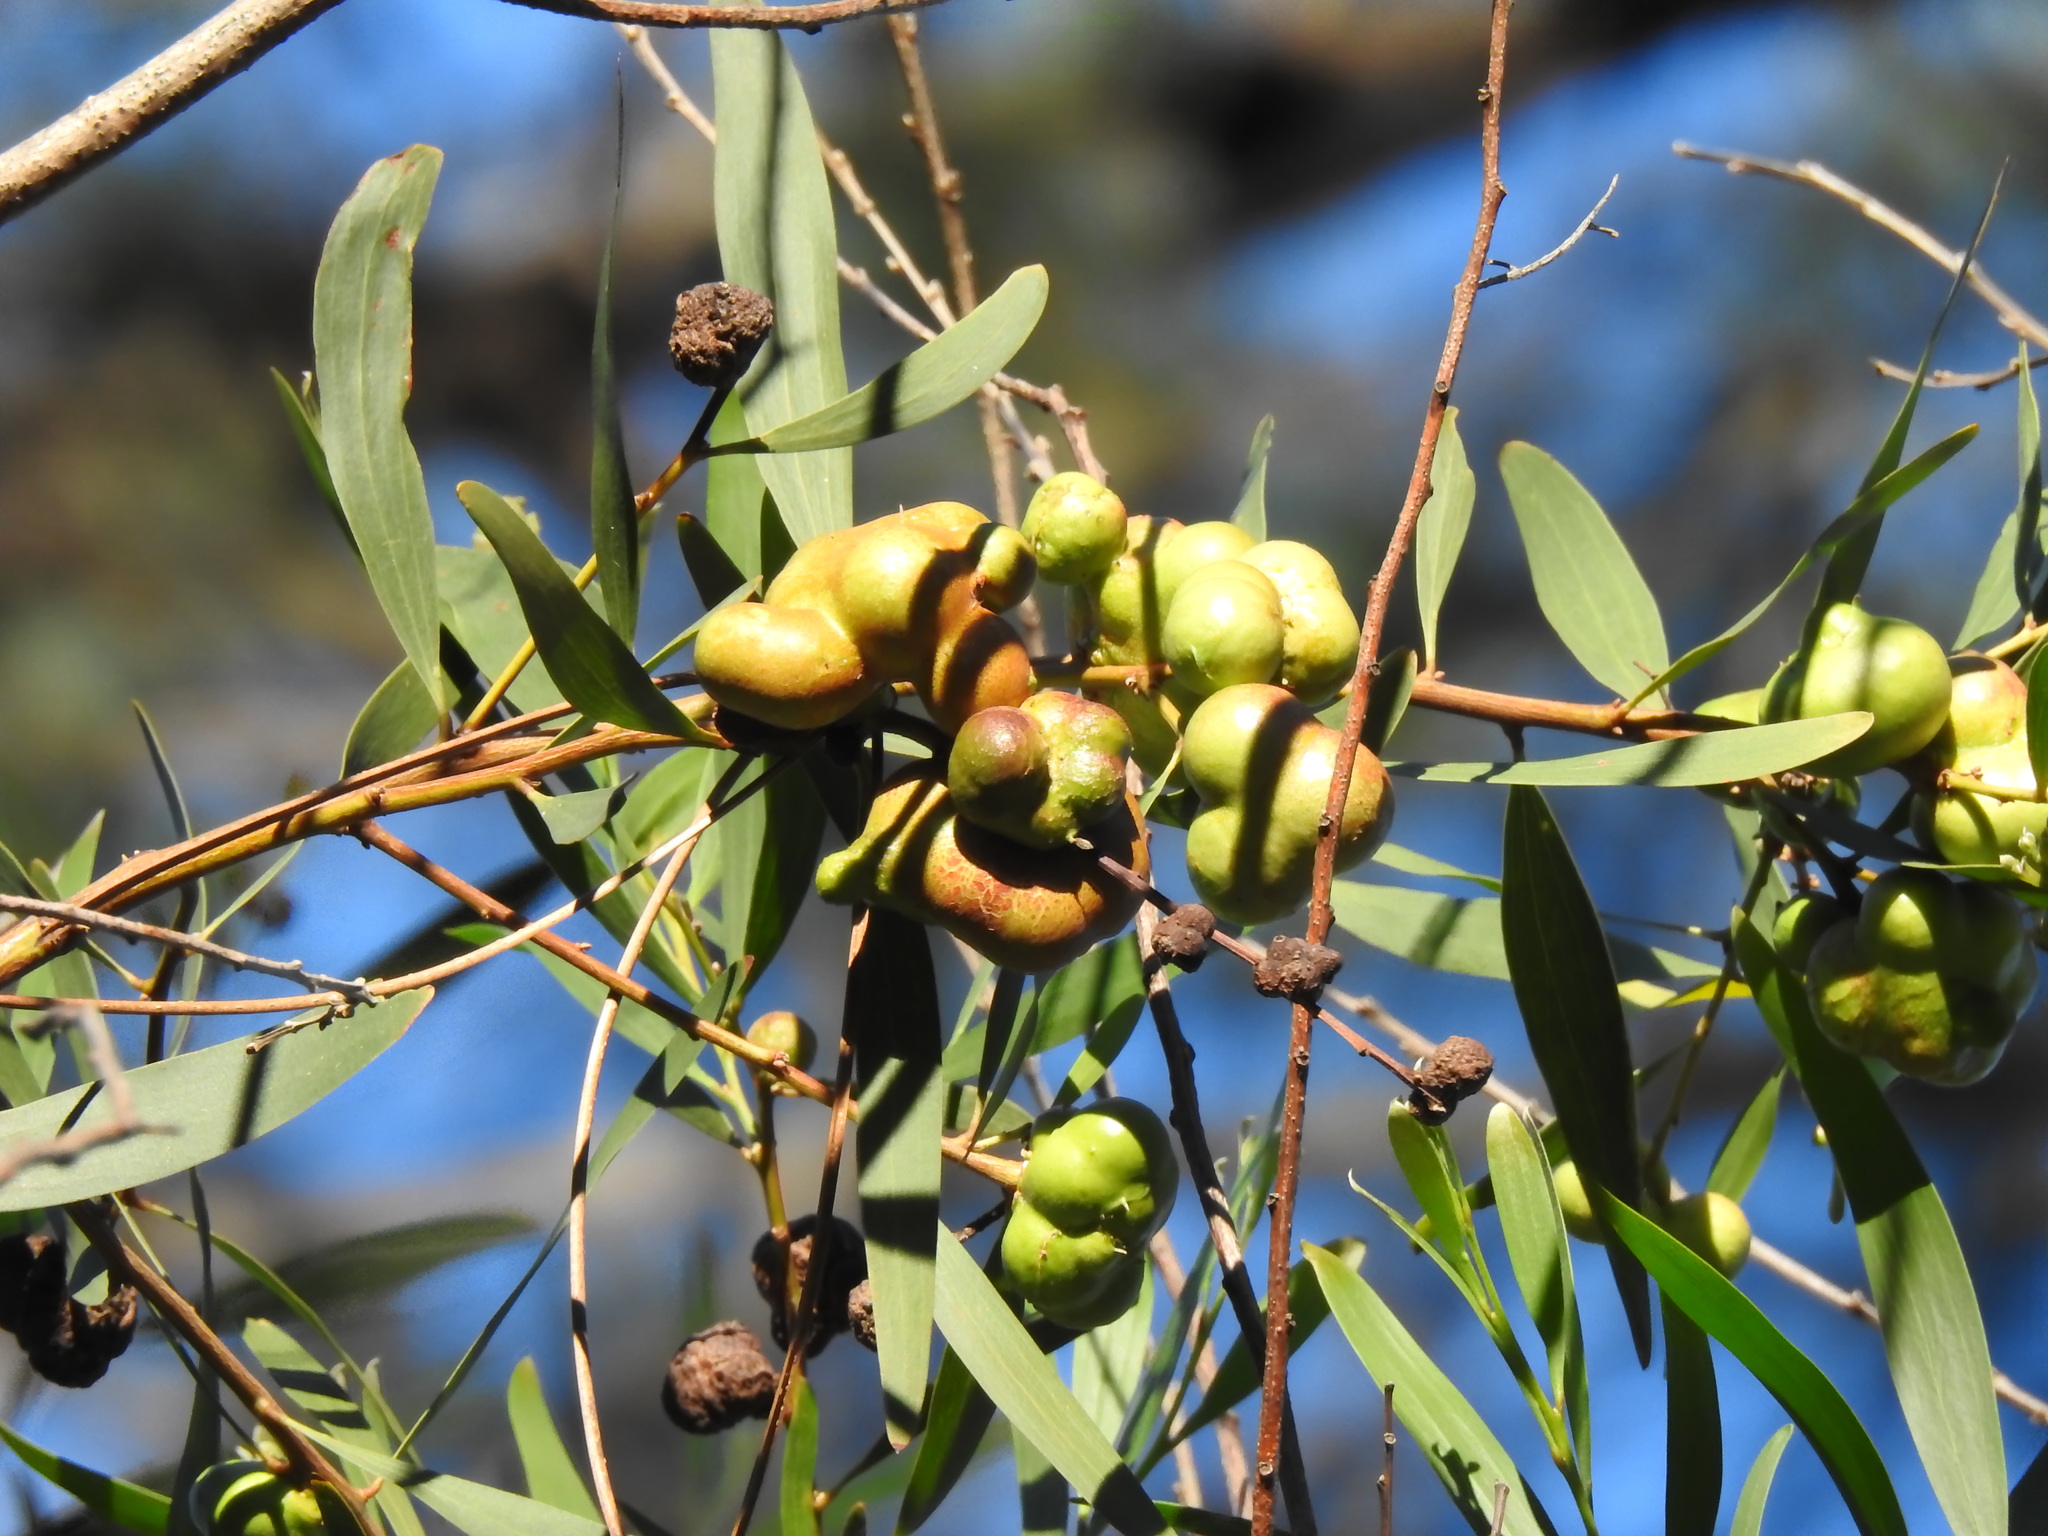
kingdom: Animalia
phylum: Arthropoda
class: Insecta
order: Hymenoptera
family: Pteromalidae
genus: Trichilogaster
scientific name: Trichilogaster acaciaelongifoliae
